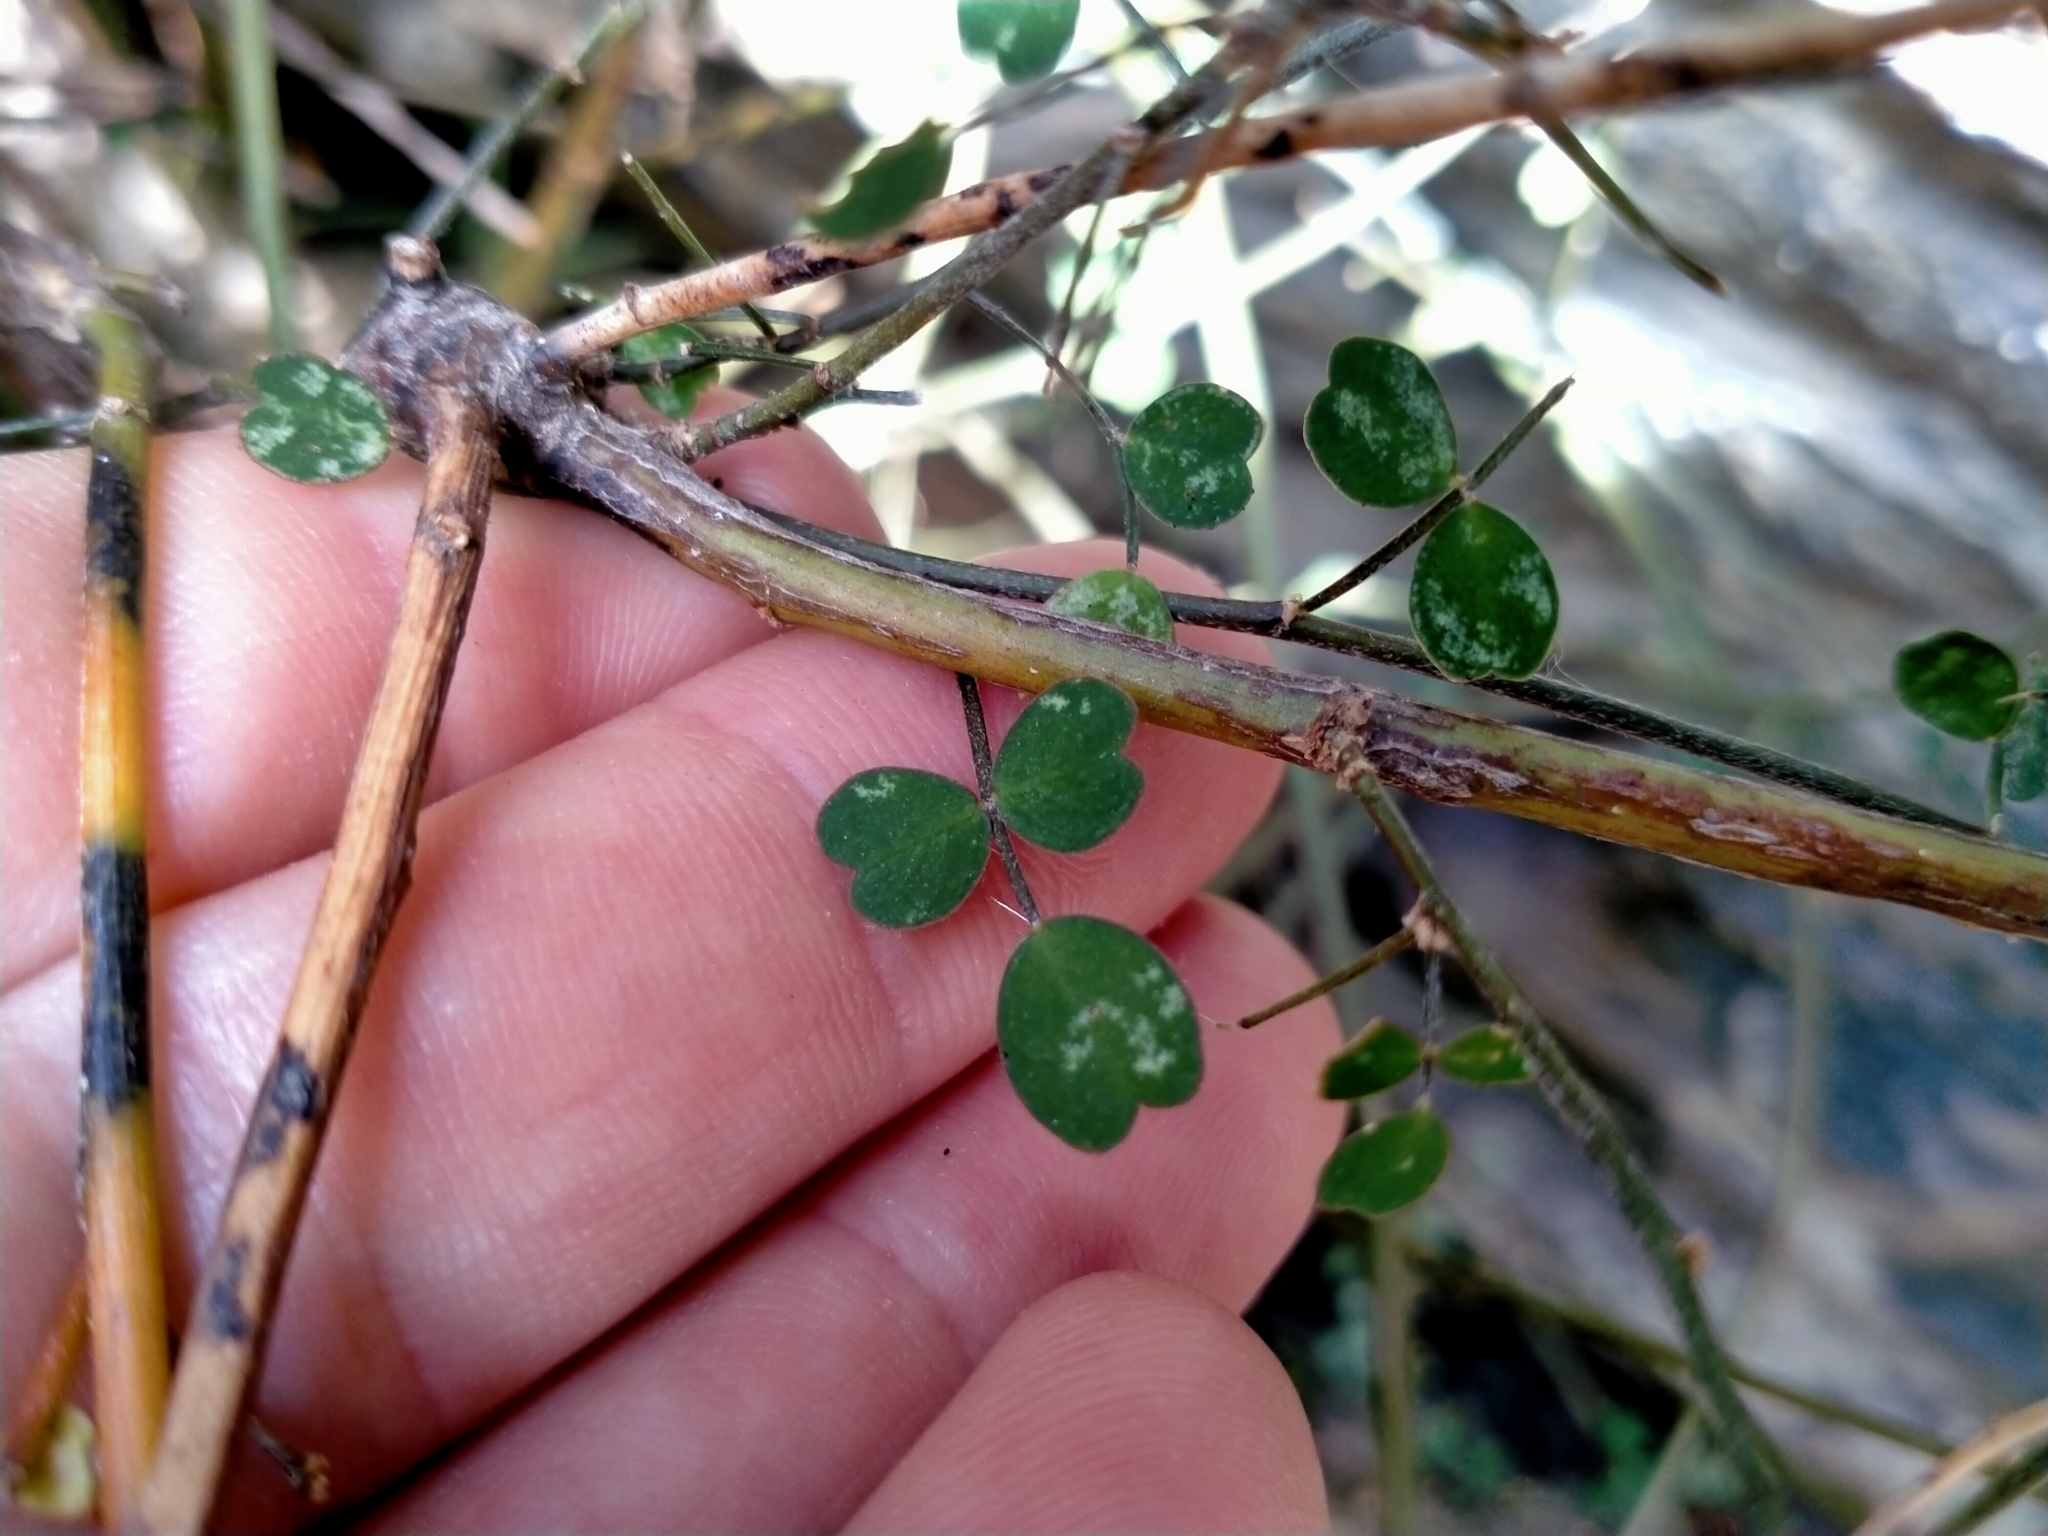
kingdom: Plantae
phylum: Tracheophyta
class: Magnoliopsida
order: Fabales
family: Fabaceae
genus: Carmichaelia
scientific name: Carmichaelia kirkii
